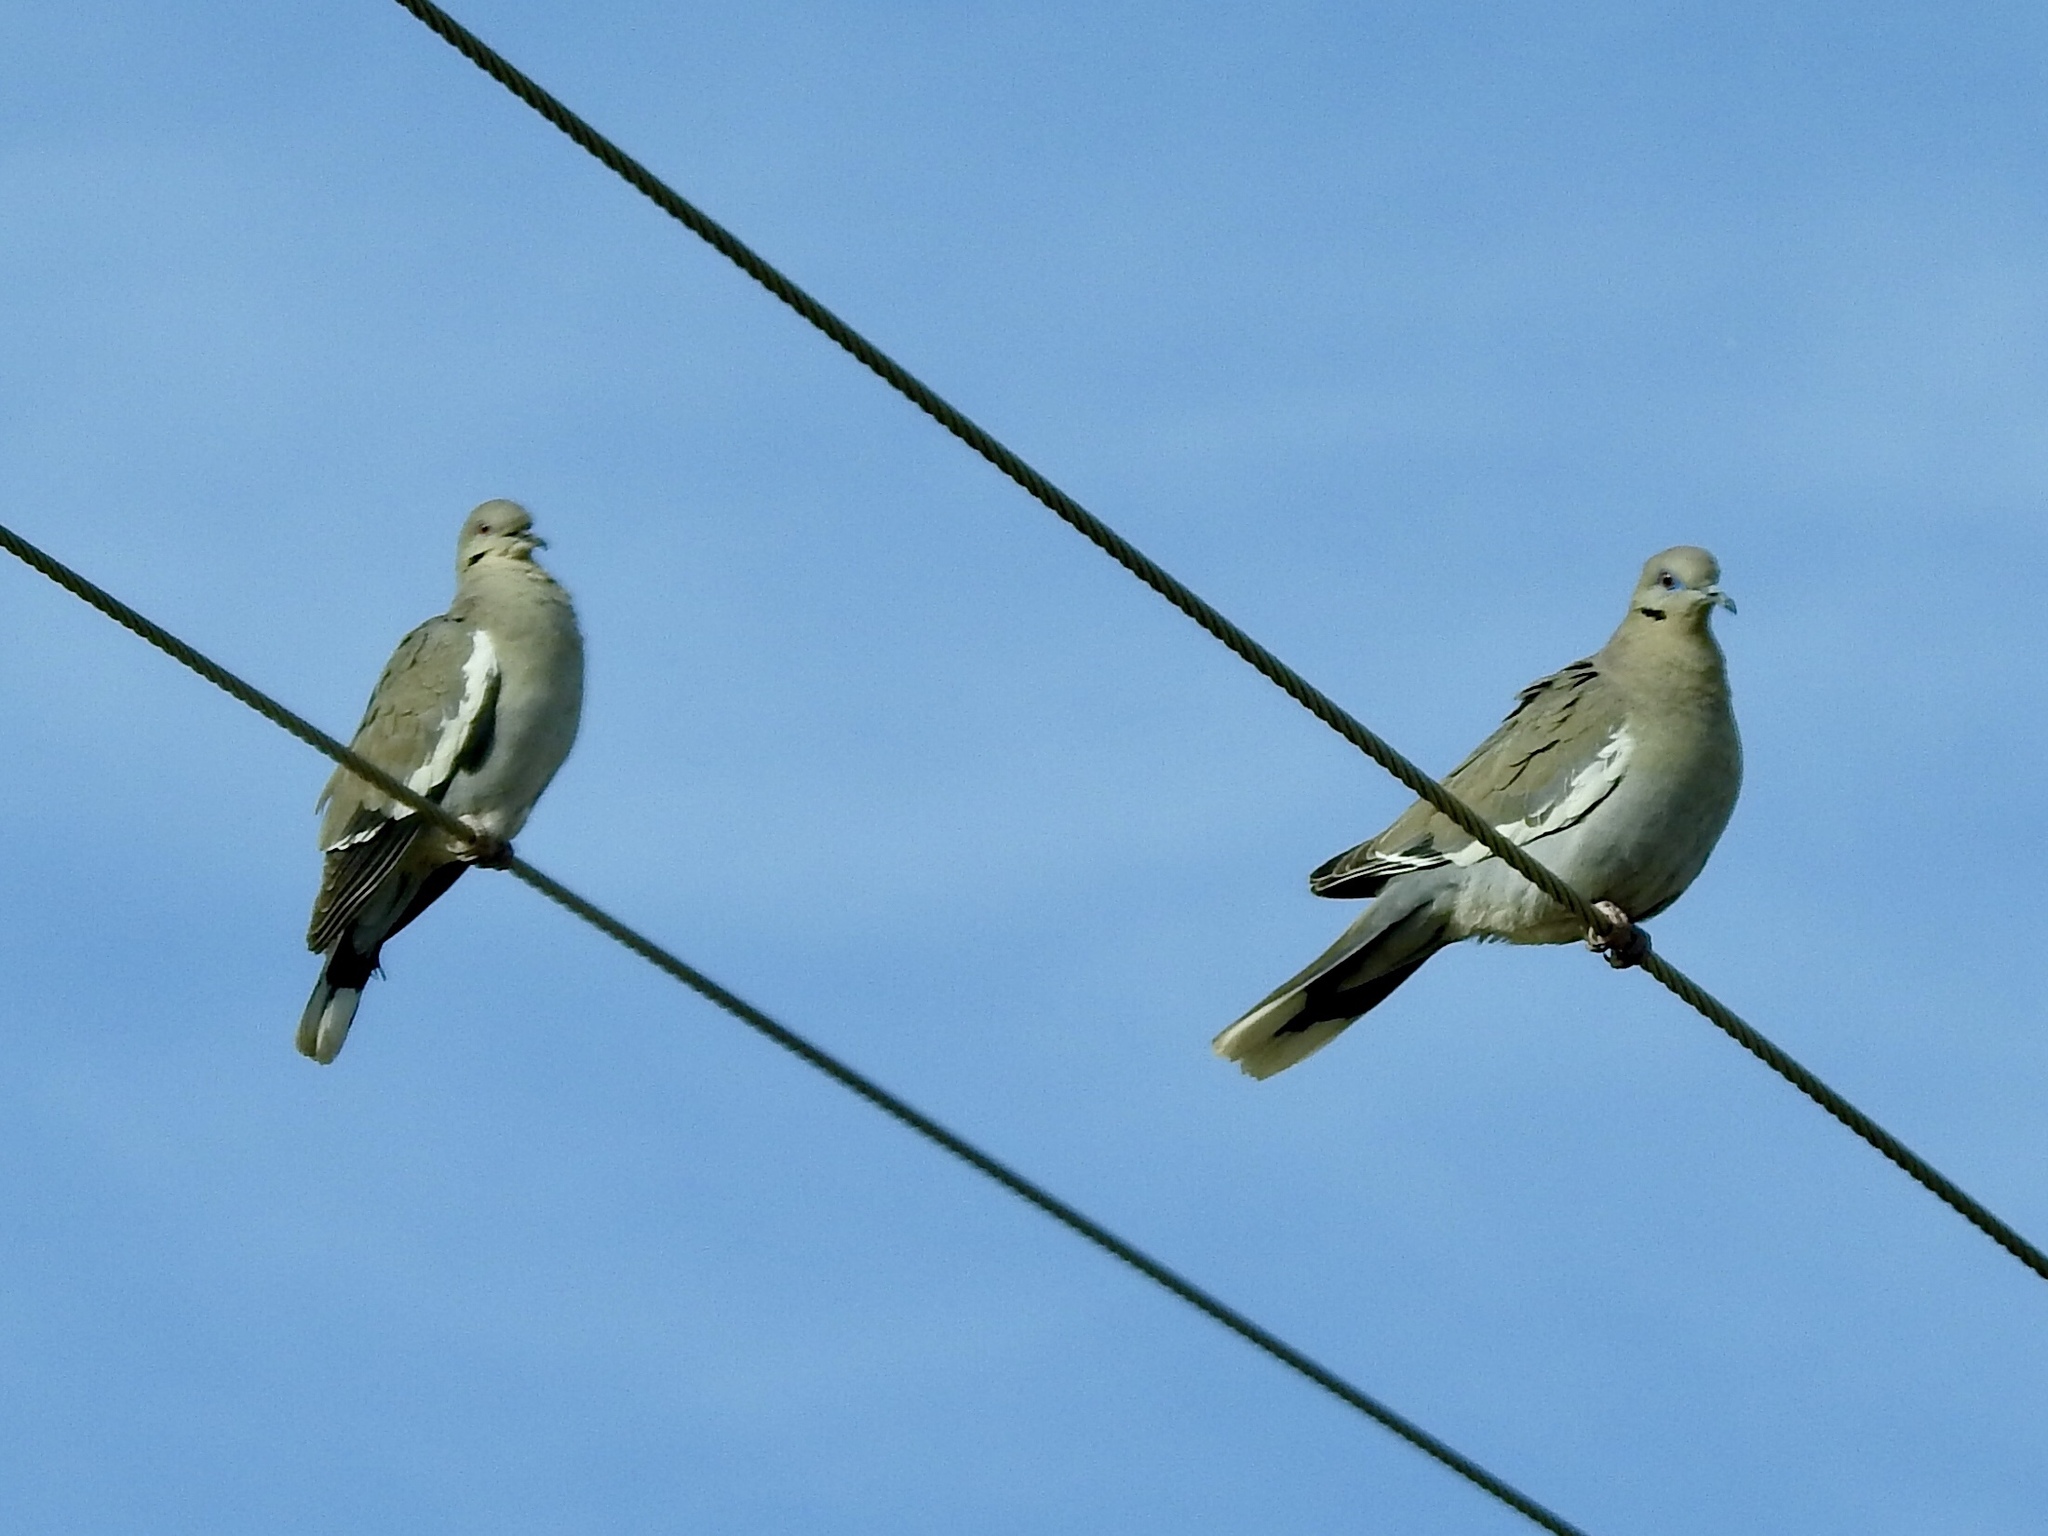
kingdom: Animalia
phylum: Chordata
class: Aves
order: Columbiformes
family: Columbidae
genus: Zenaida
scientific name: Zenaida asiatica
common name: White-winged dove
